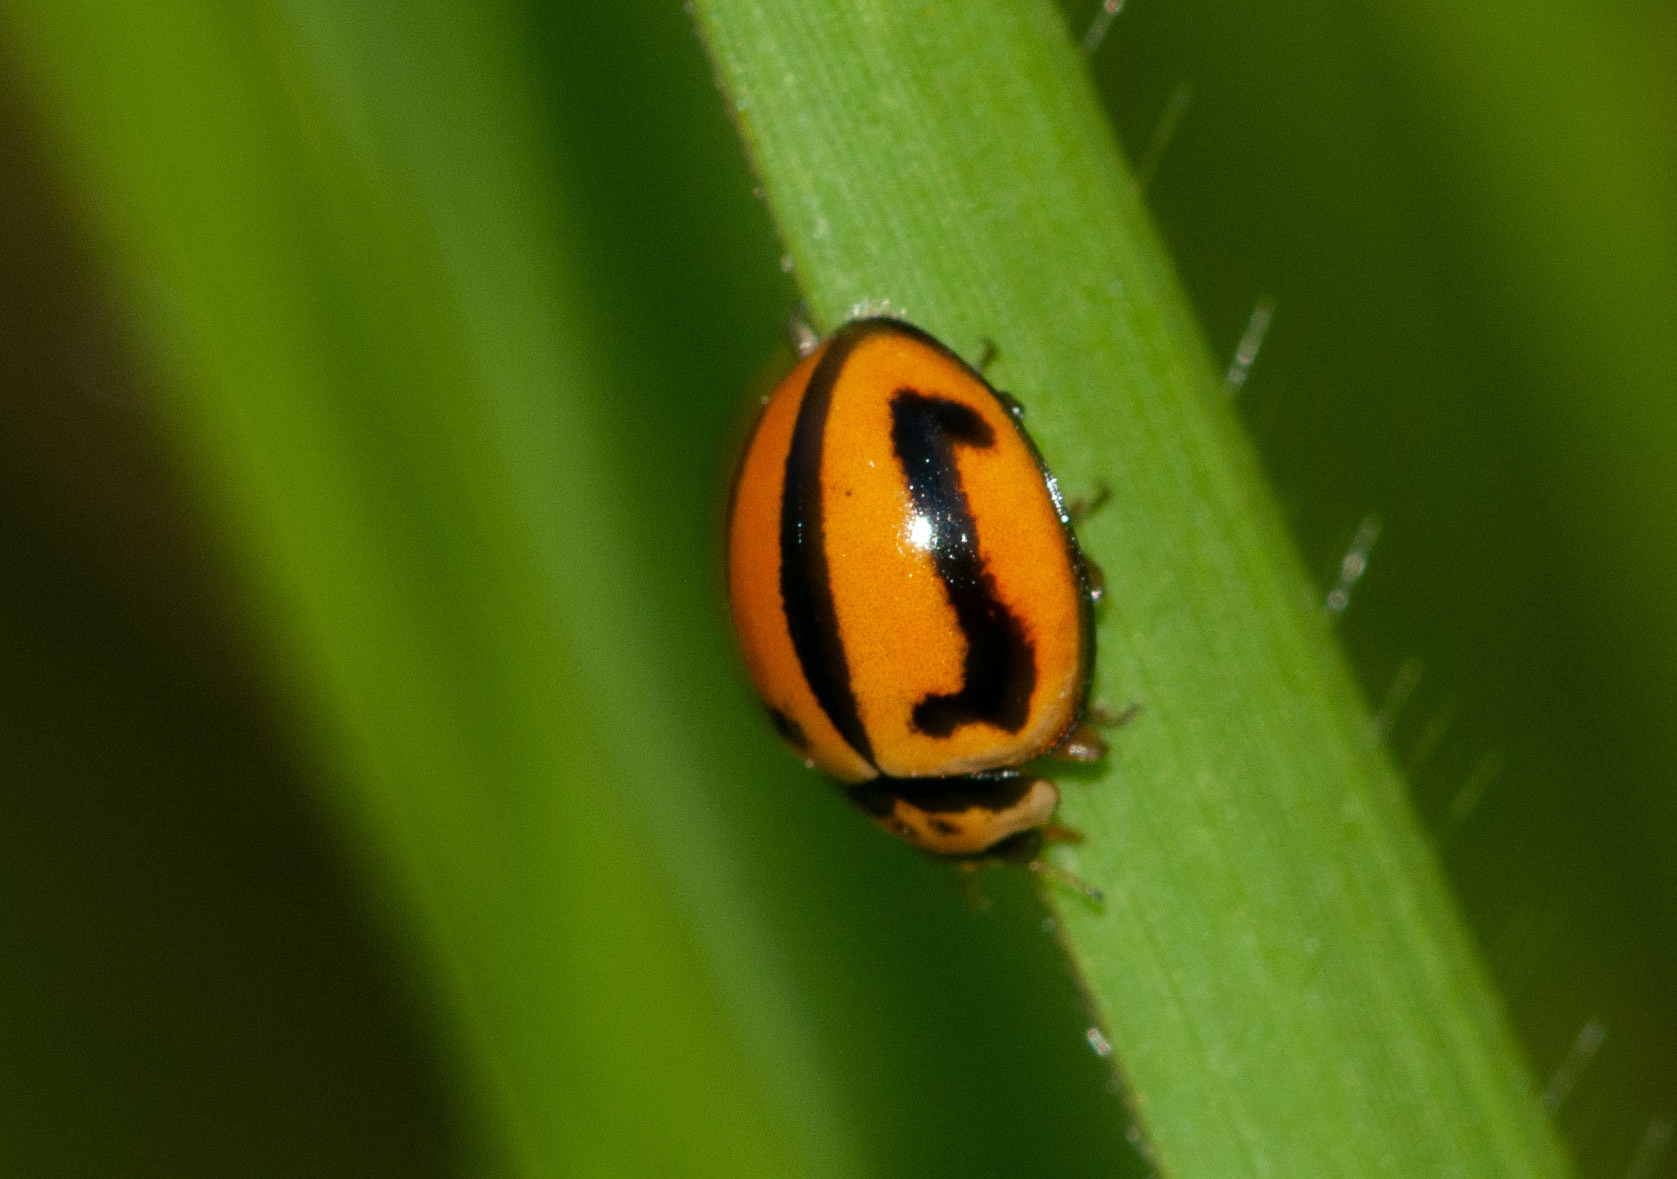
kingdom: Animalia
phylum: Arthropoda
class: Insecta
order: Coleoptera
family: Coccinellidae
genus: Micraspis
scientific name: Micraspis frenata
